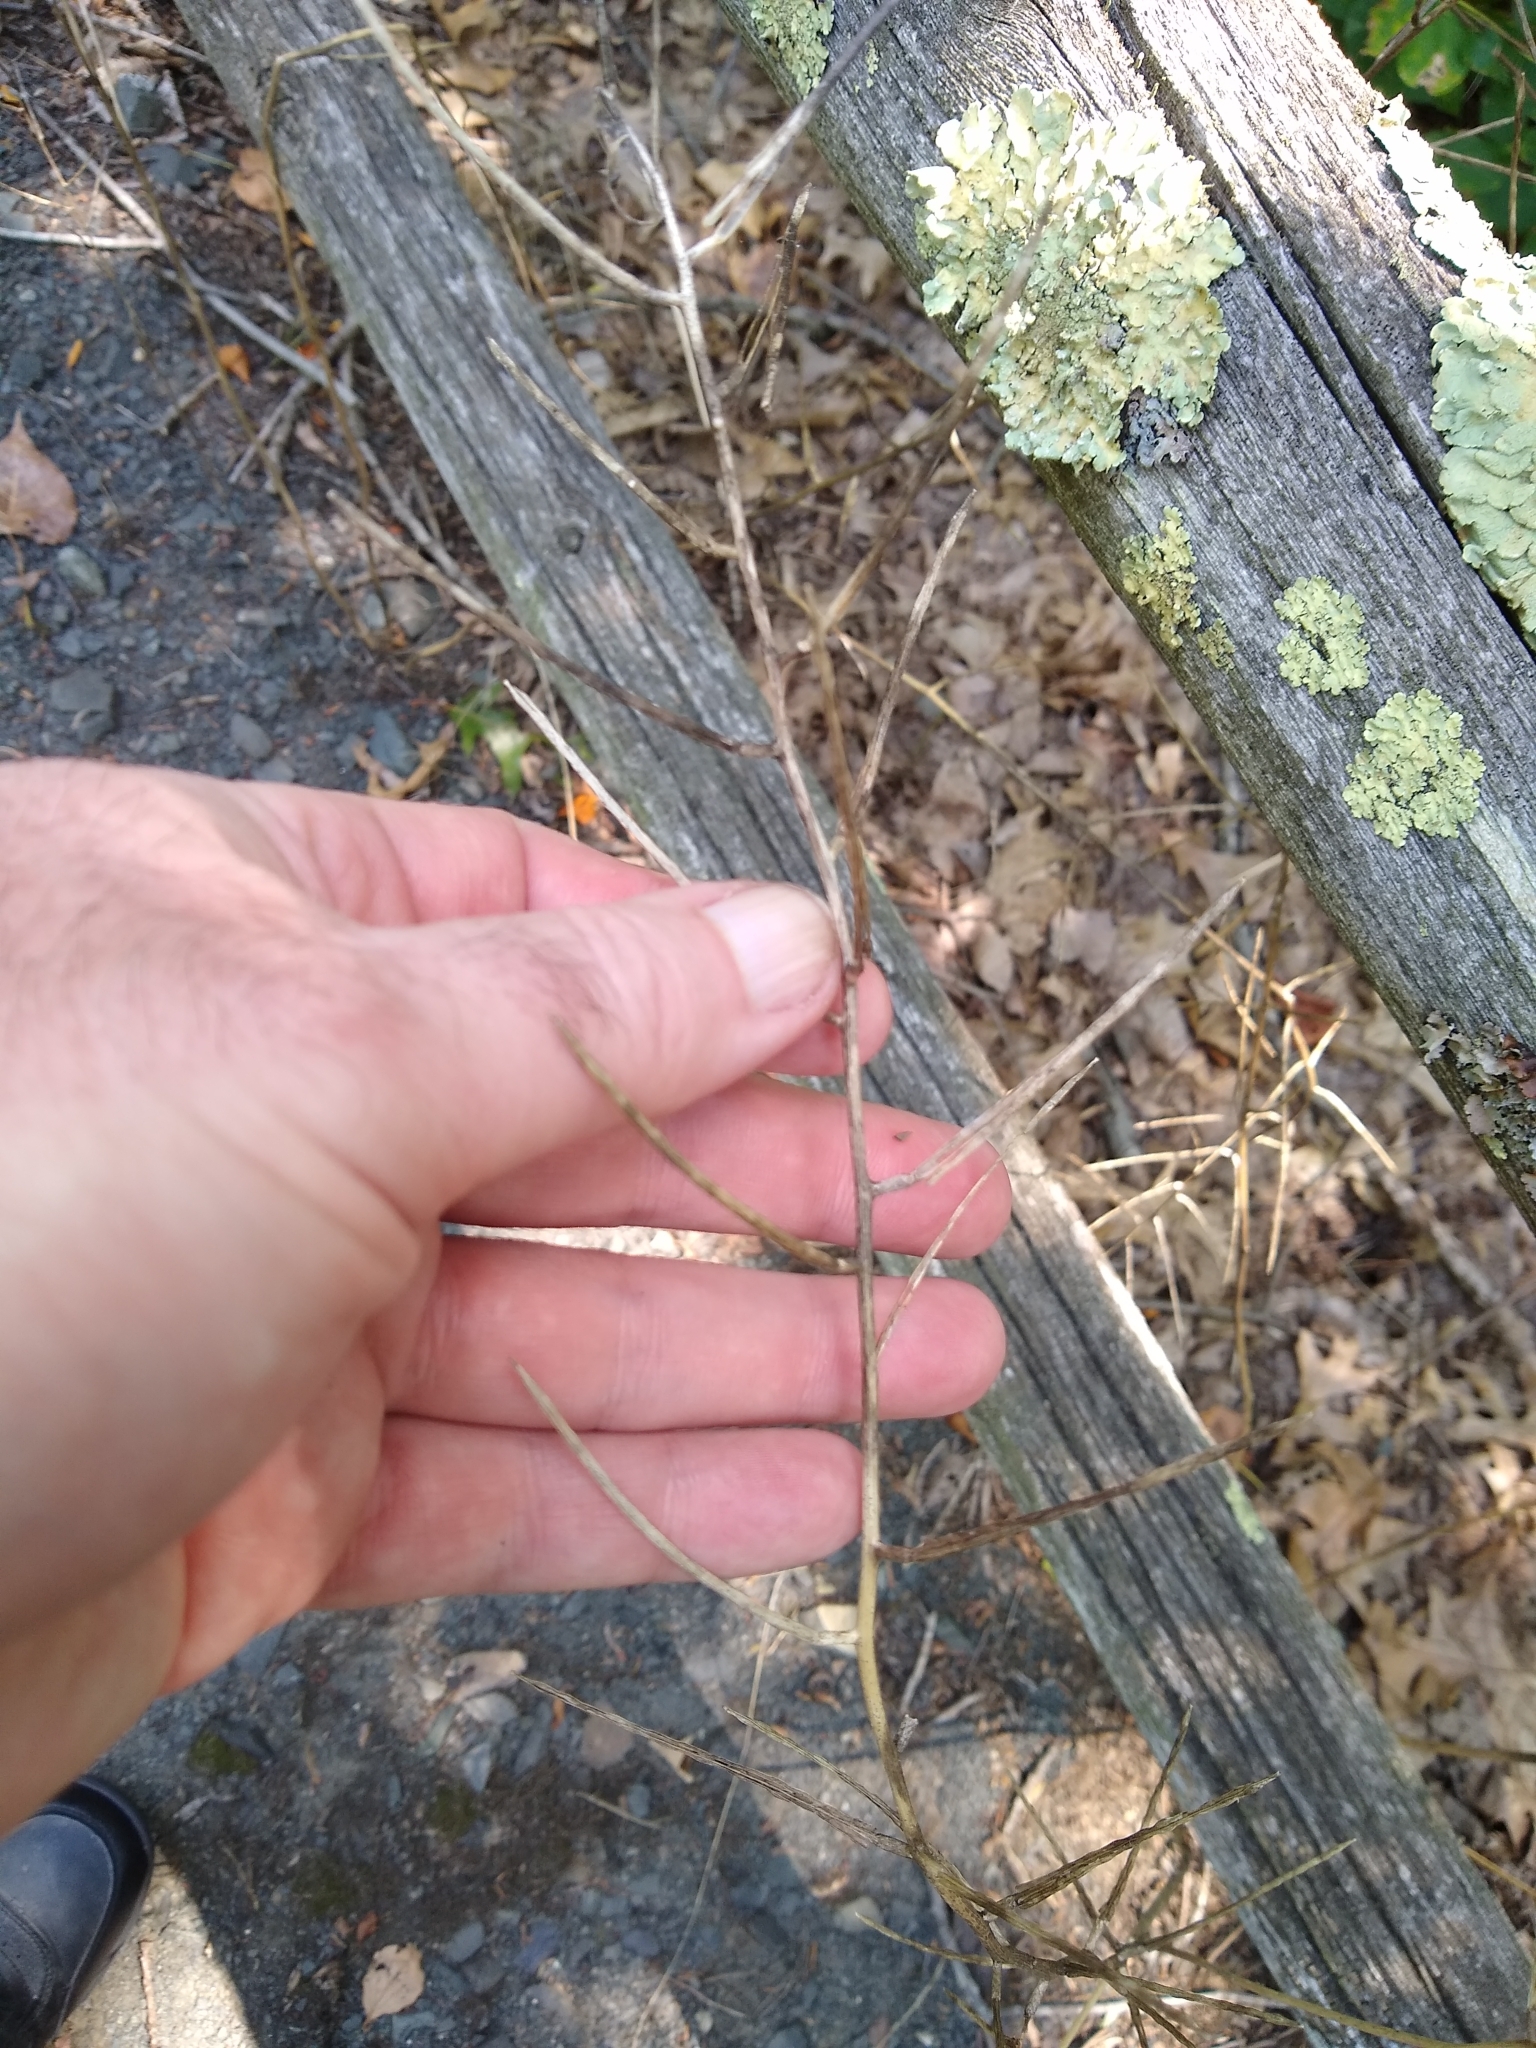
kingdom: Plantae
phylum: Tracheophyta
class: Magnoliopsida
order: Brassicales
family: Brassicaceae
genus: Alliaria
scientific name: Alliaria petiolata
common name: Garlic mustard
